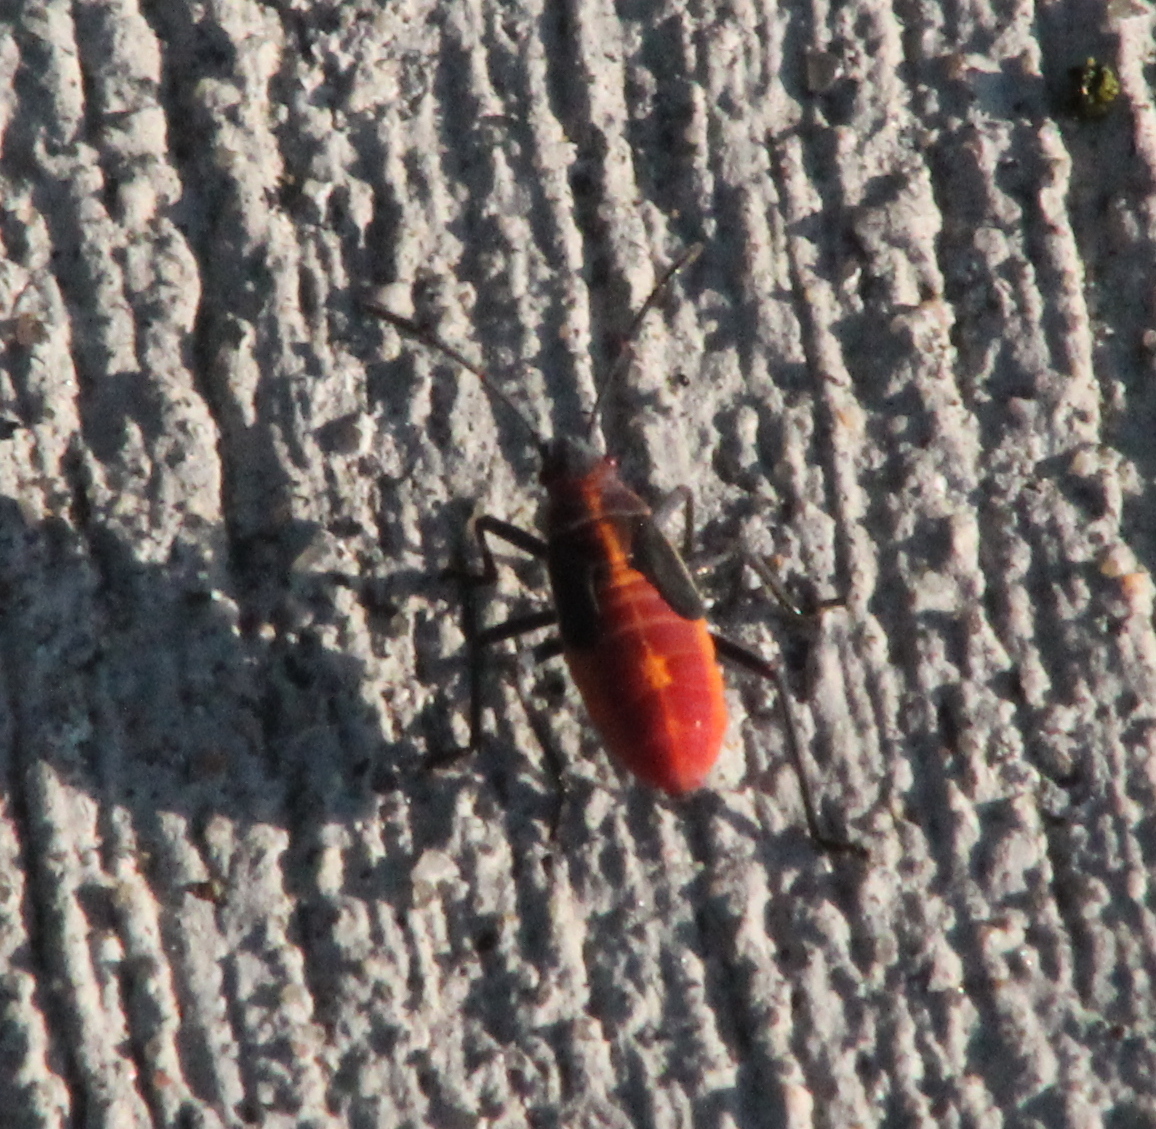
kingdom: Animalia
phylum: Arthropoda
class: Insecta
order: Hemiptera
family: Rhopalidae
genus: Boisea
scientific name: Boisea
